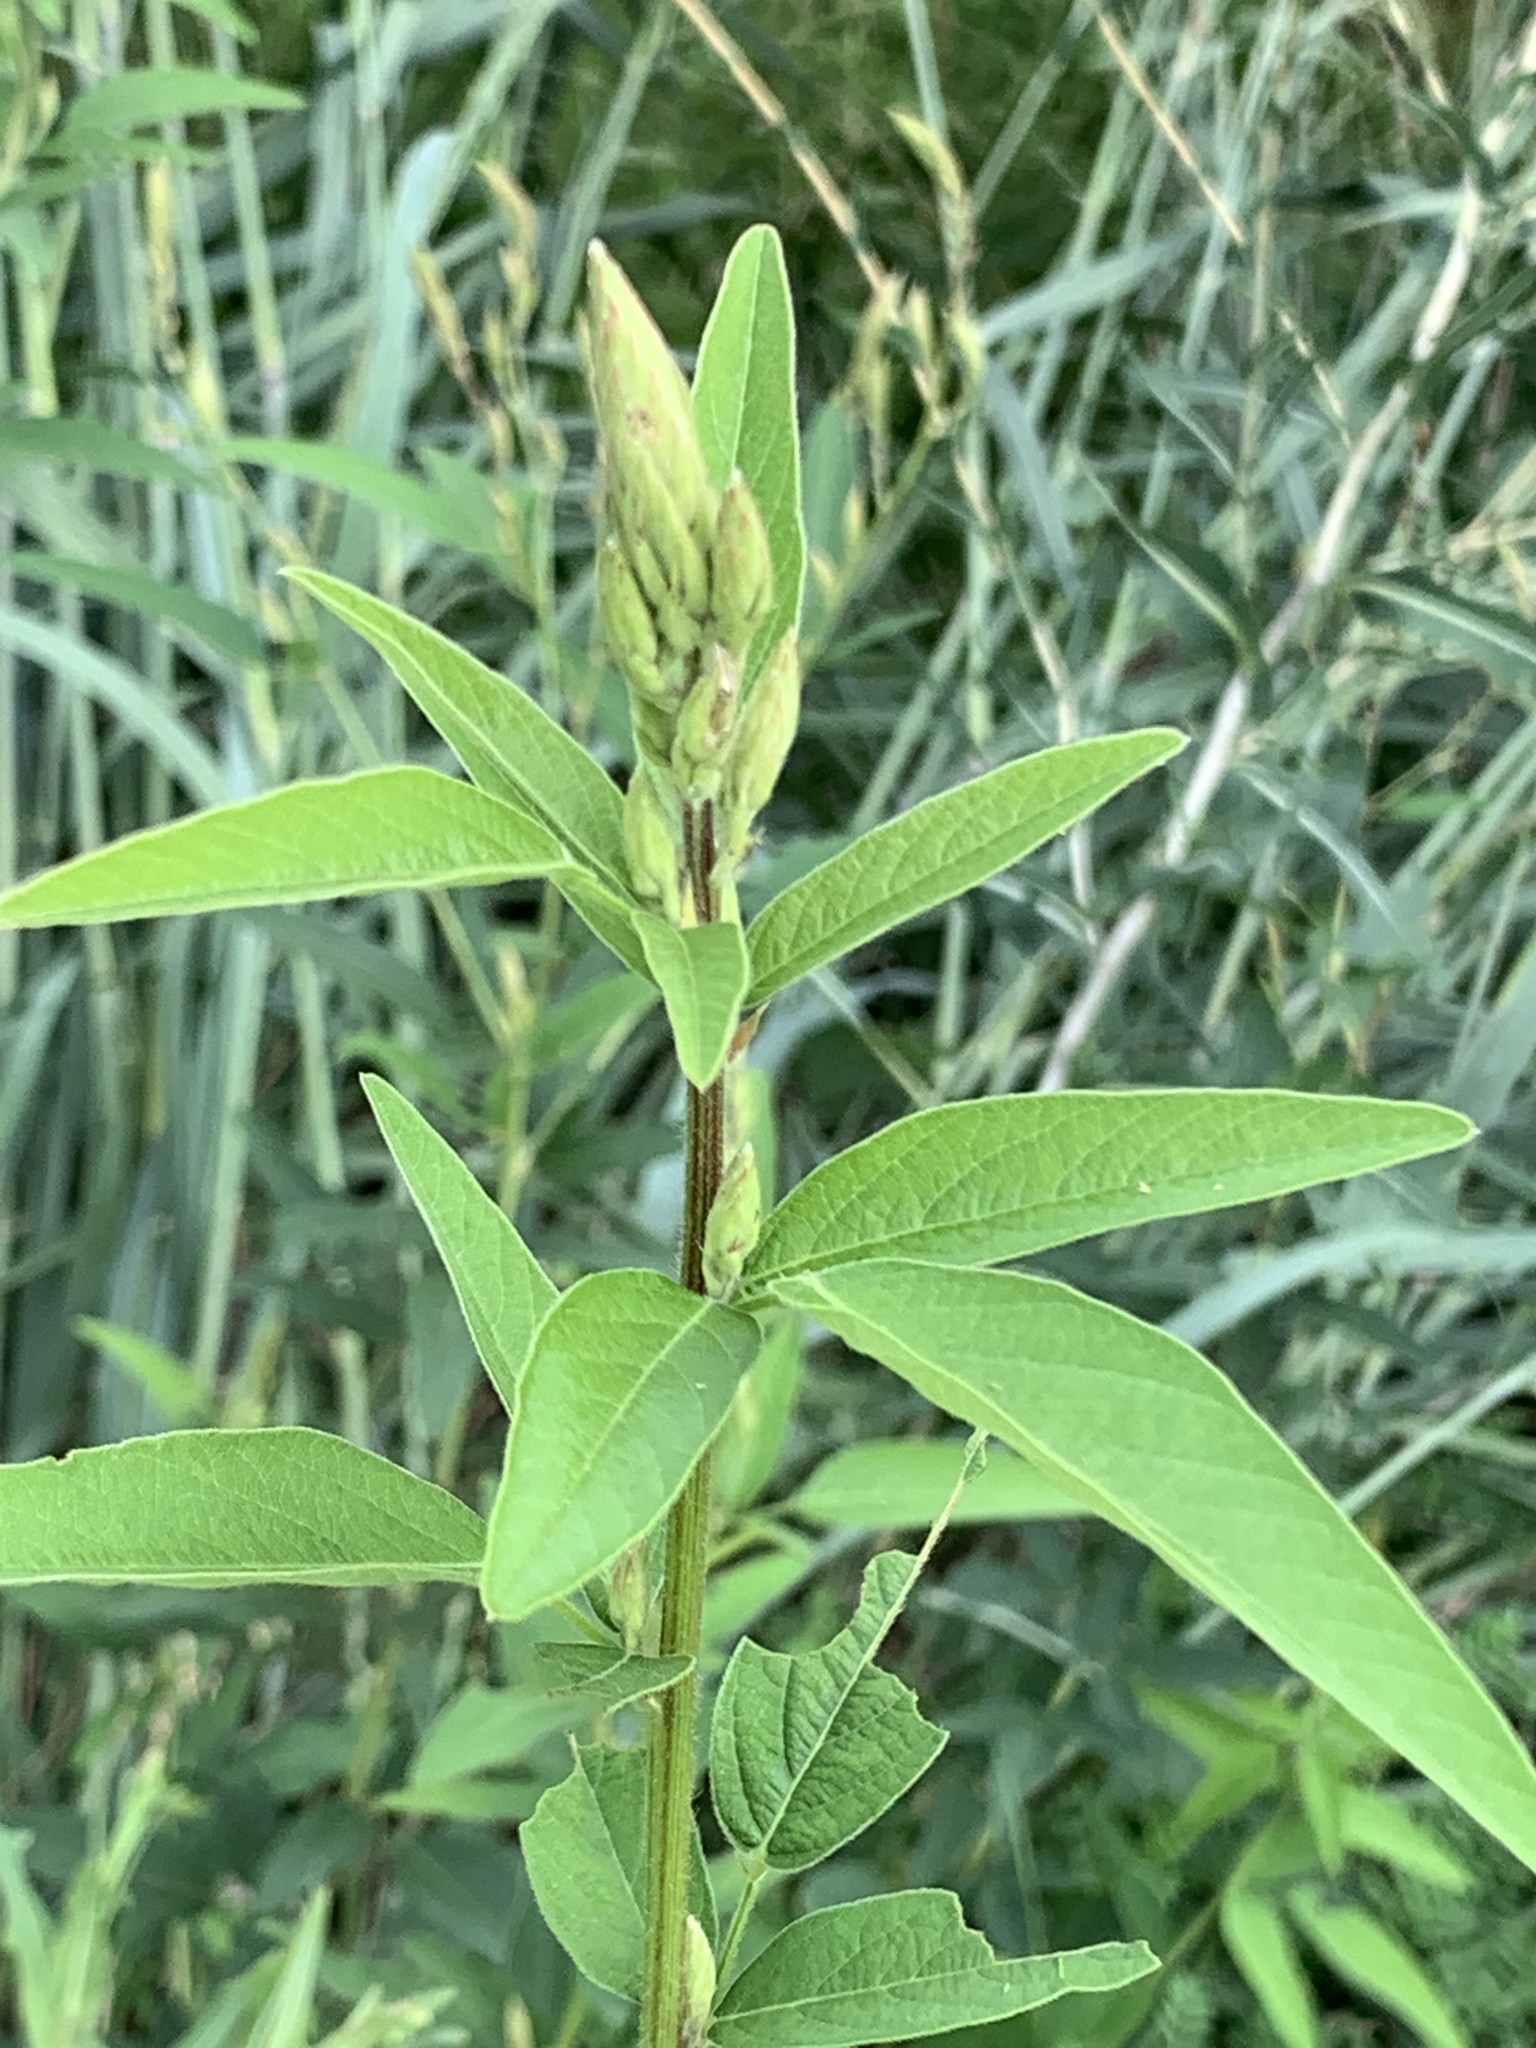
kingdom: Plantae
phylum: Tracheophyta
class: Magnoliopsida
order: Fabales
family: Fabaceae
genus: Desmodium
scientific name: Desmodium canadense
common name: Canada tick-trefoil
